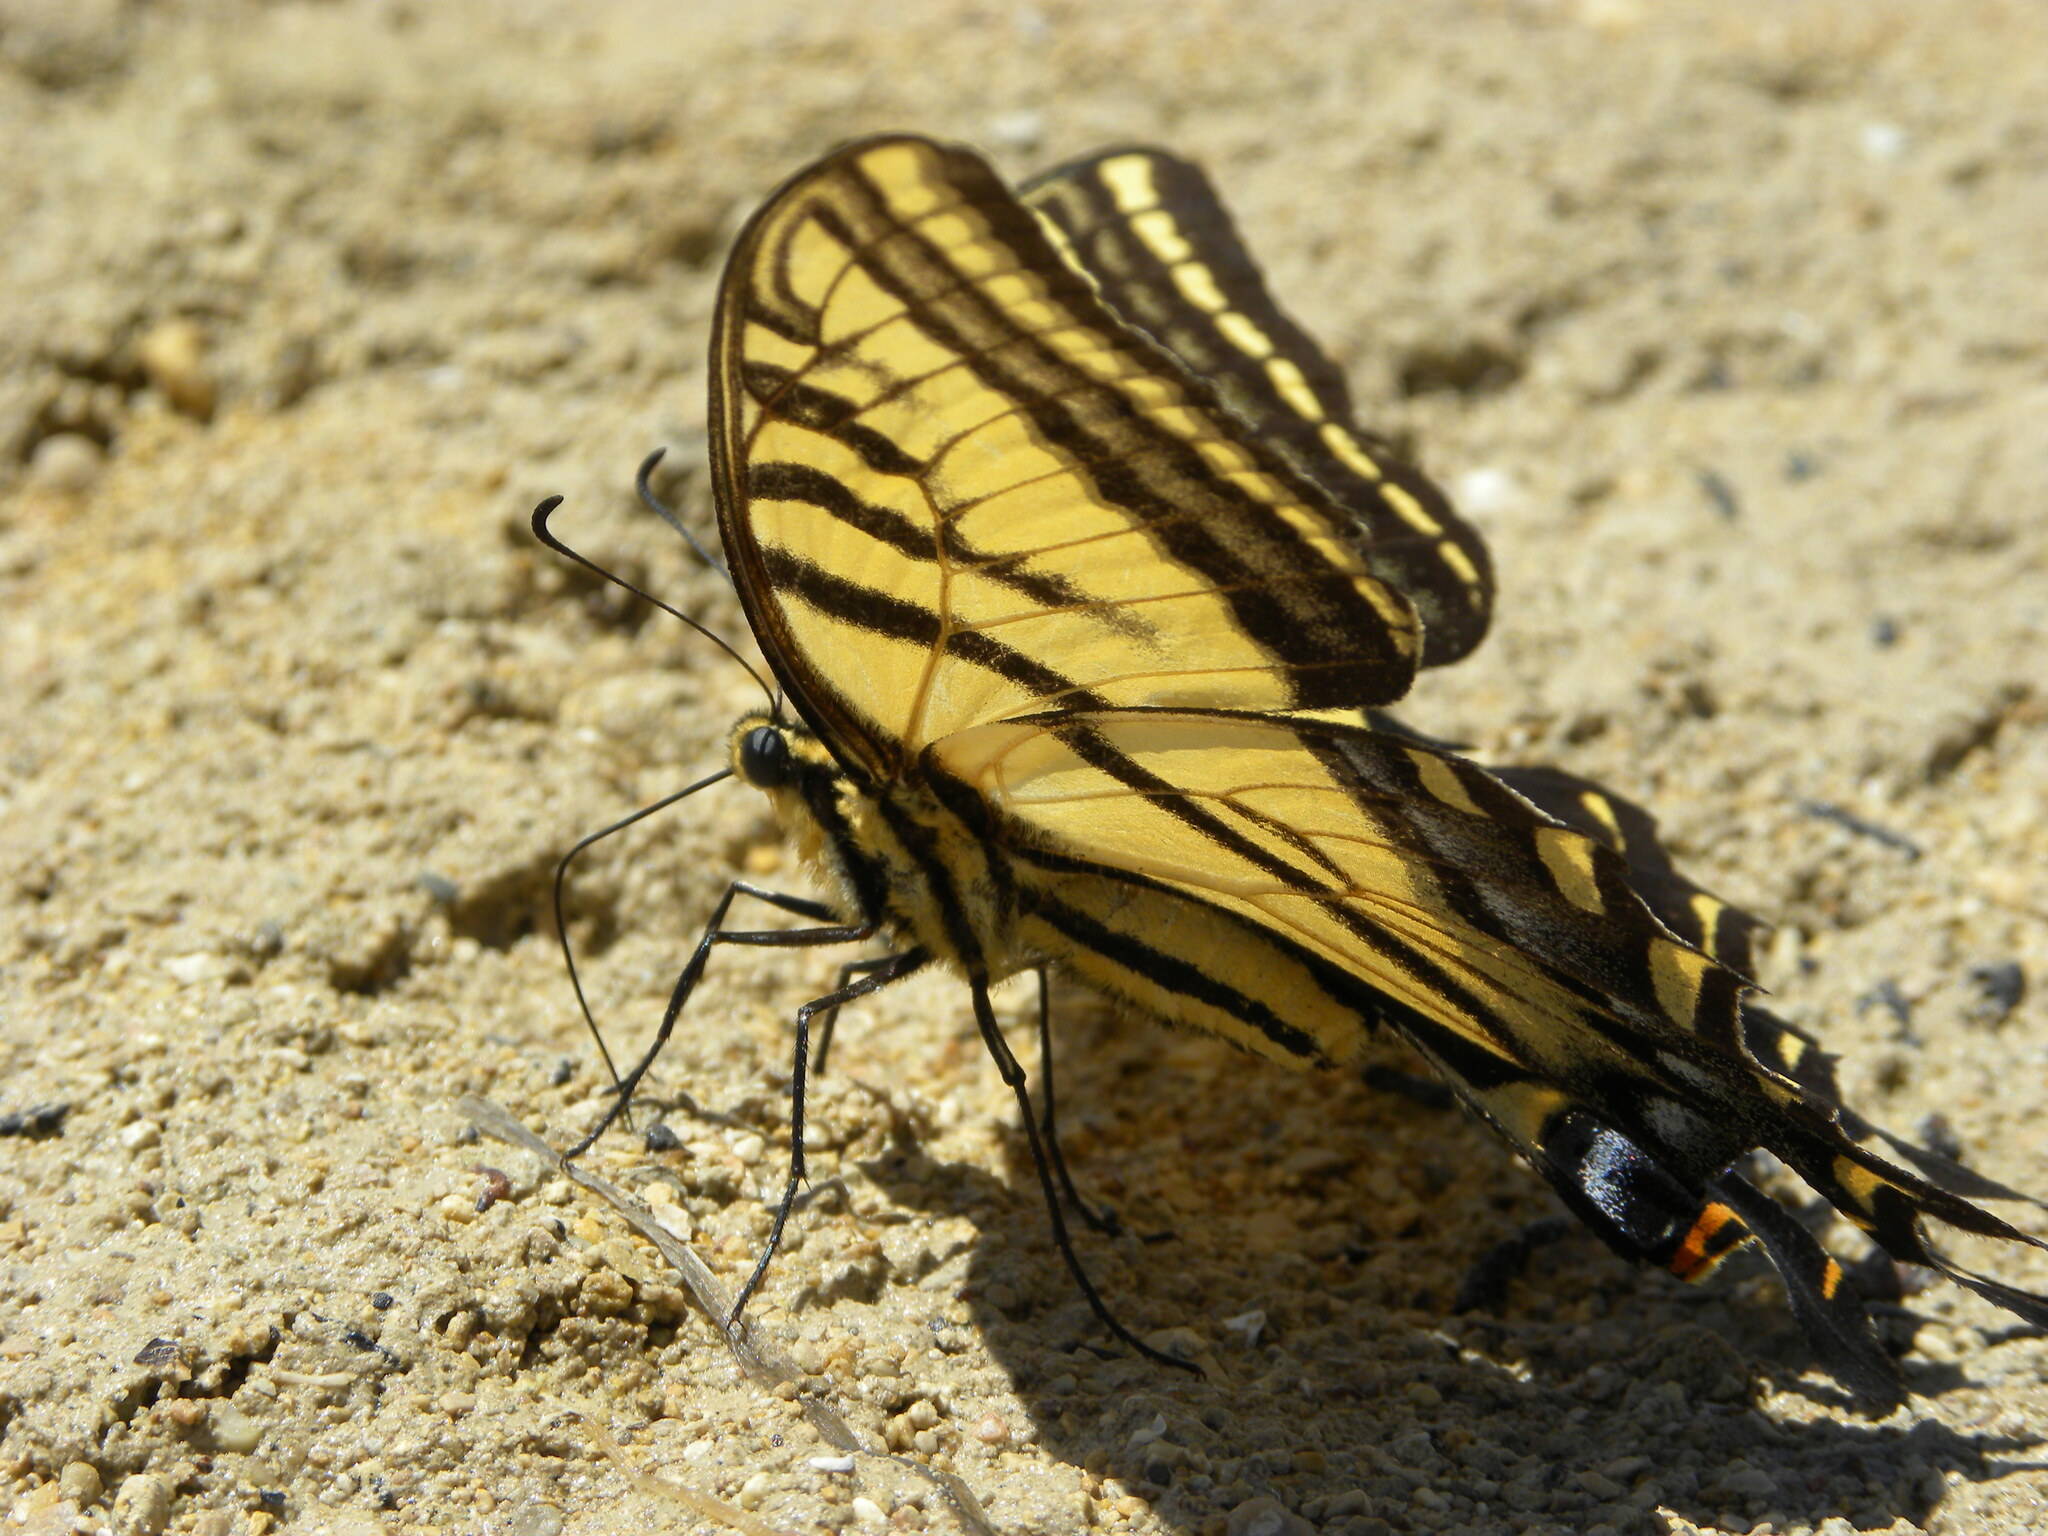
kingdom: Animalia
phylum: Arthropoda
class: Insecta
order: Lepidoptera
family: Papilionidae
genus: Papilio
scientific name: Papilio multicaudata
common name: Two-tailed tiger swallowtail
